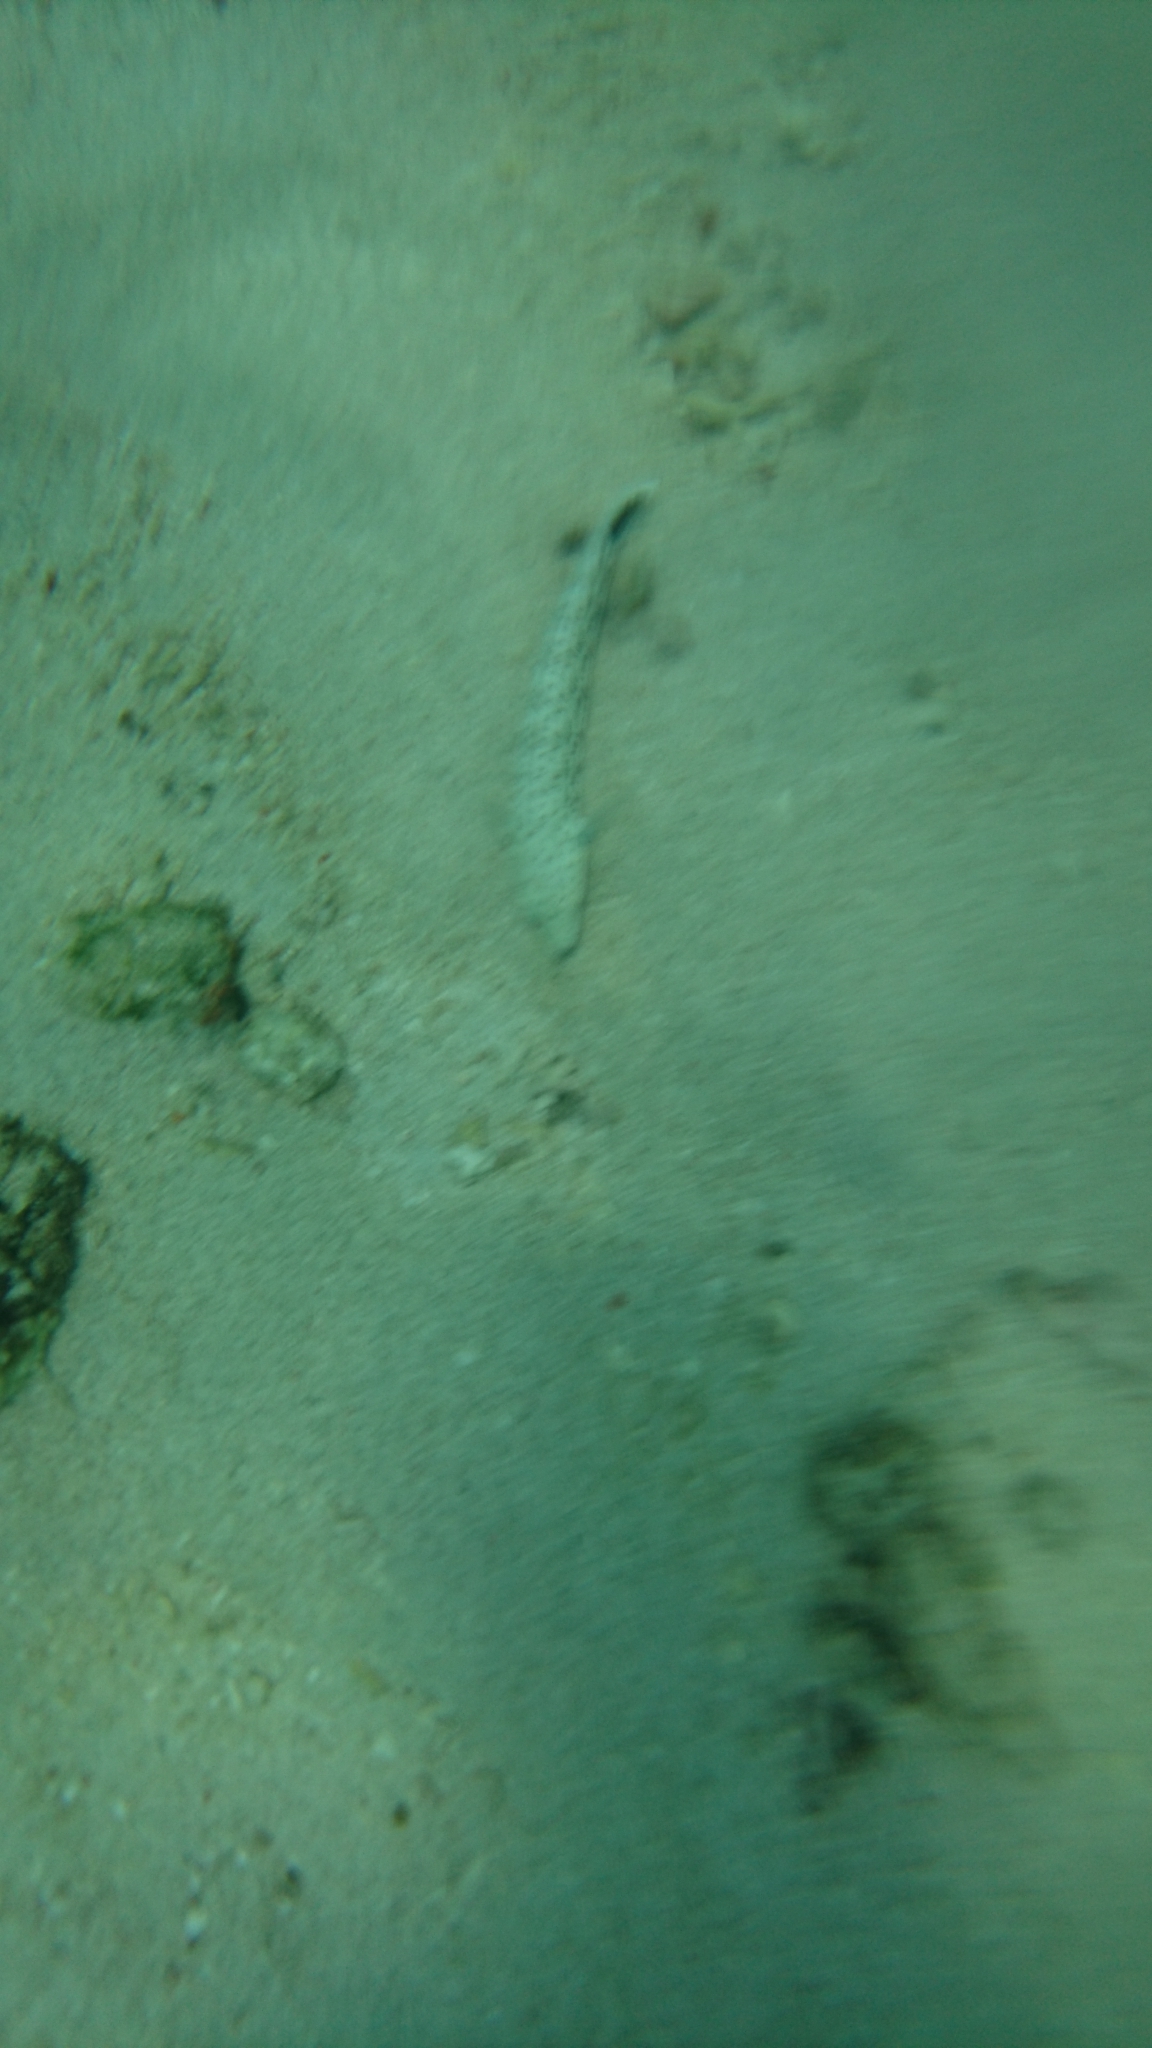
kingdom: Animalia
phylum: Chordata
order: Perciformes
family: Pinguipedidae
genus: Parapercis
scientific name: Parapercis pacifica
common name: Speckled sandperch
